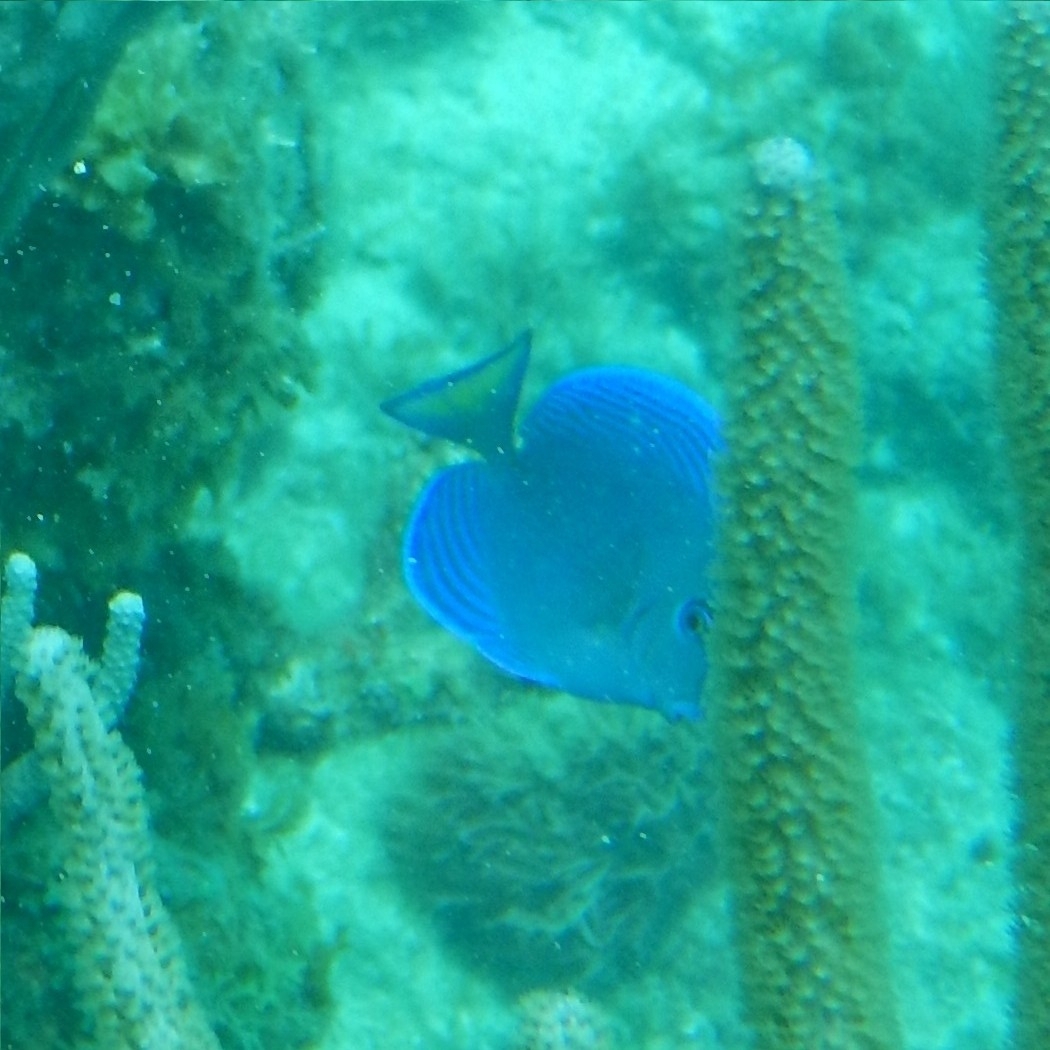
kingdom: Animalia
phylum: Chordata
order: Perciformes
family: Acanthuridae
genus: Acanthurus
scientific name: Acanthurus coeruleus
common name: Blue tang
